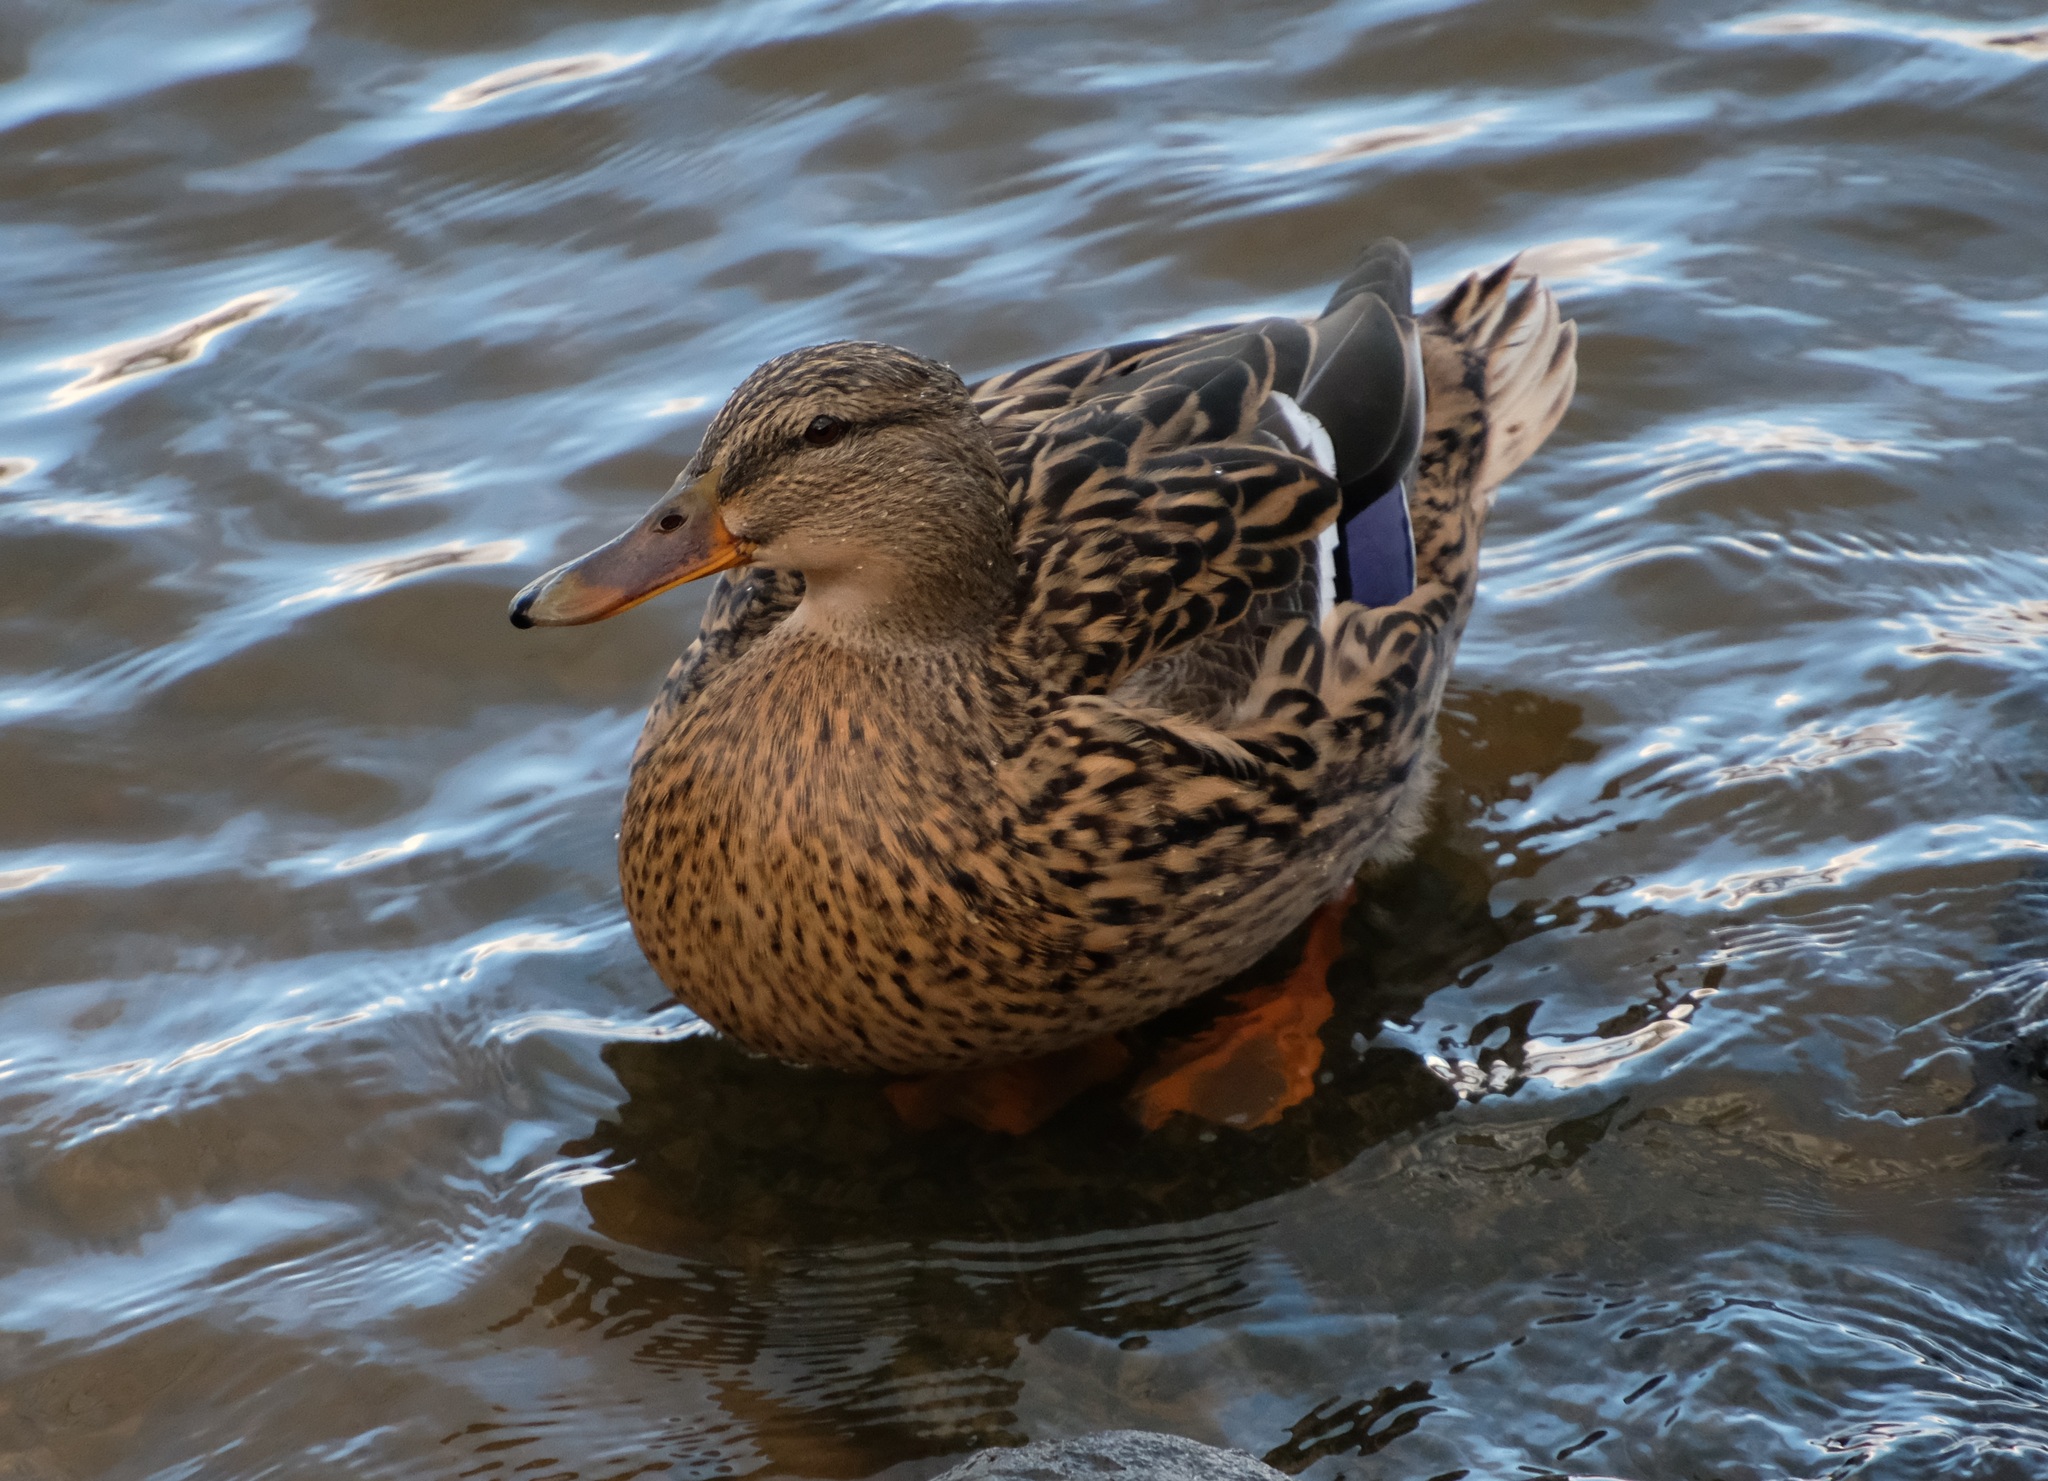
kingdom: Animalia
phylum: Chordata
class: Aves
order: Anseriformes
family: Anatidae
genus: Anas
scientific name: Anas platyrhynchos
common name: Mallard
